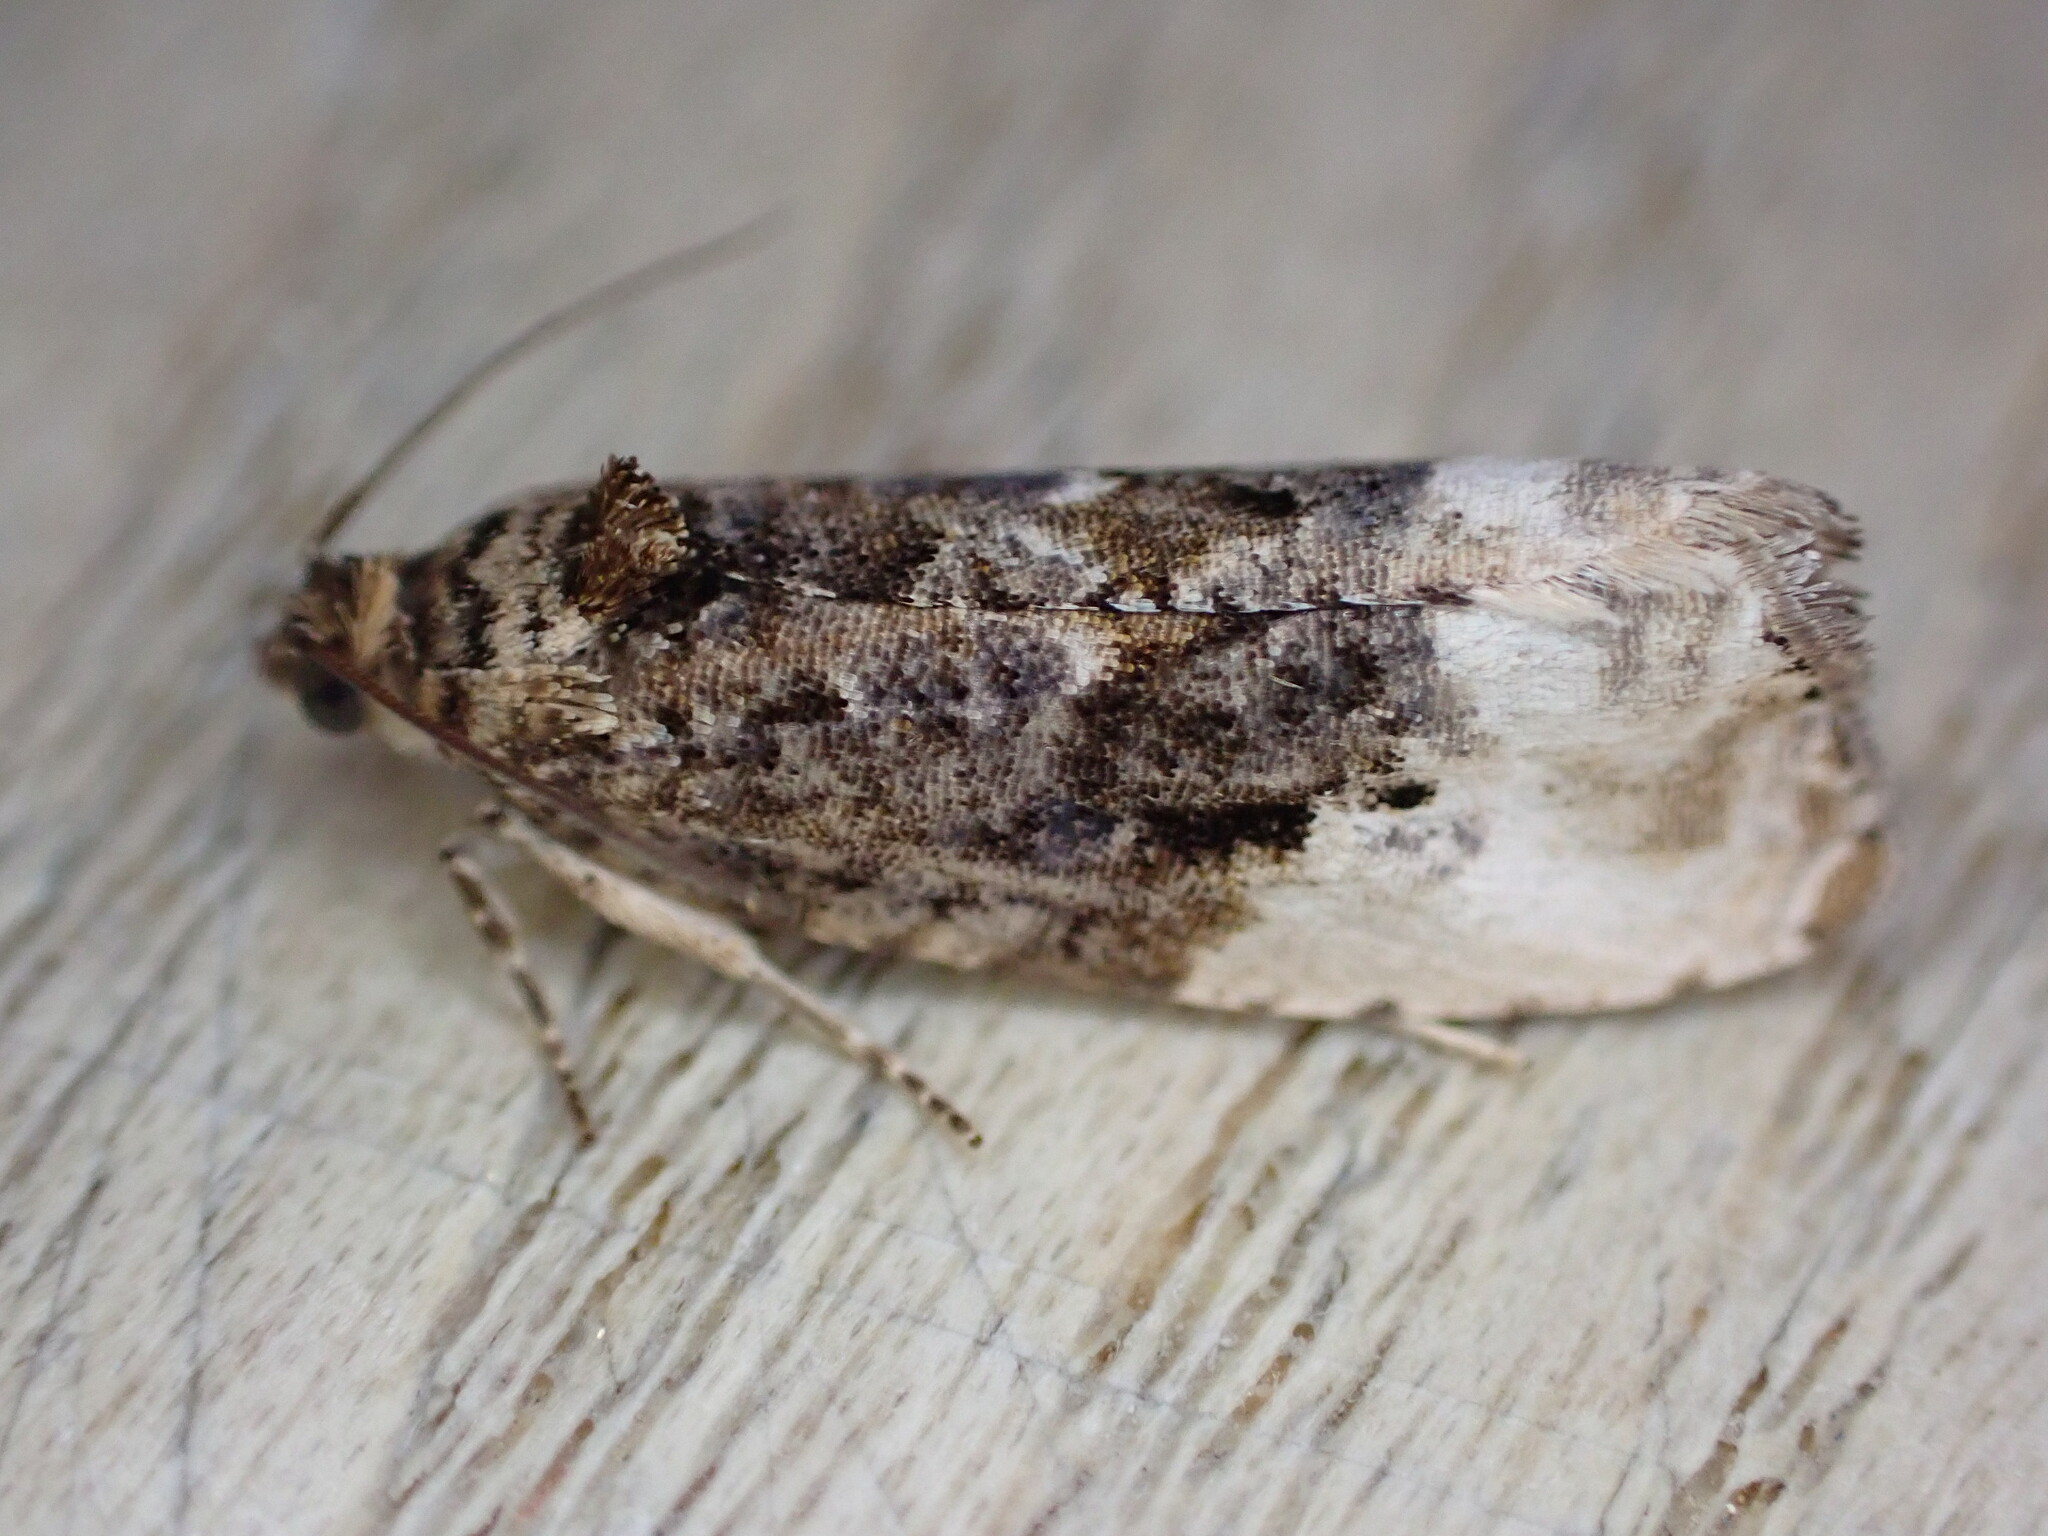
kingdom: Animalia
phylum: Arthropoda
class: Insecta
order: Lepidoptera
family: Tortricidae
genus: Hedya
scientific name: Hedya nubiferana
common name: Marbled orchard tortrix
